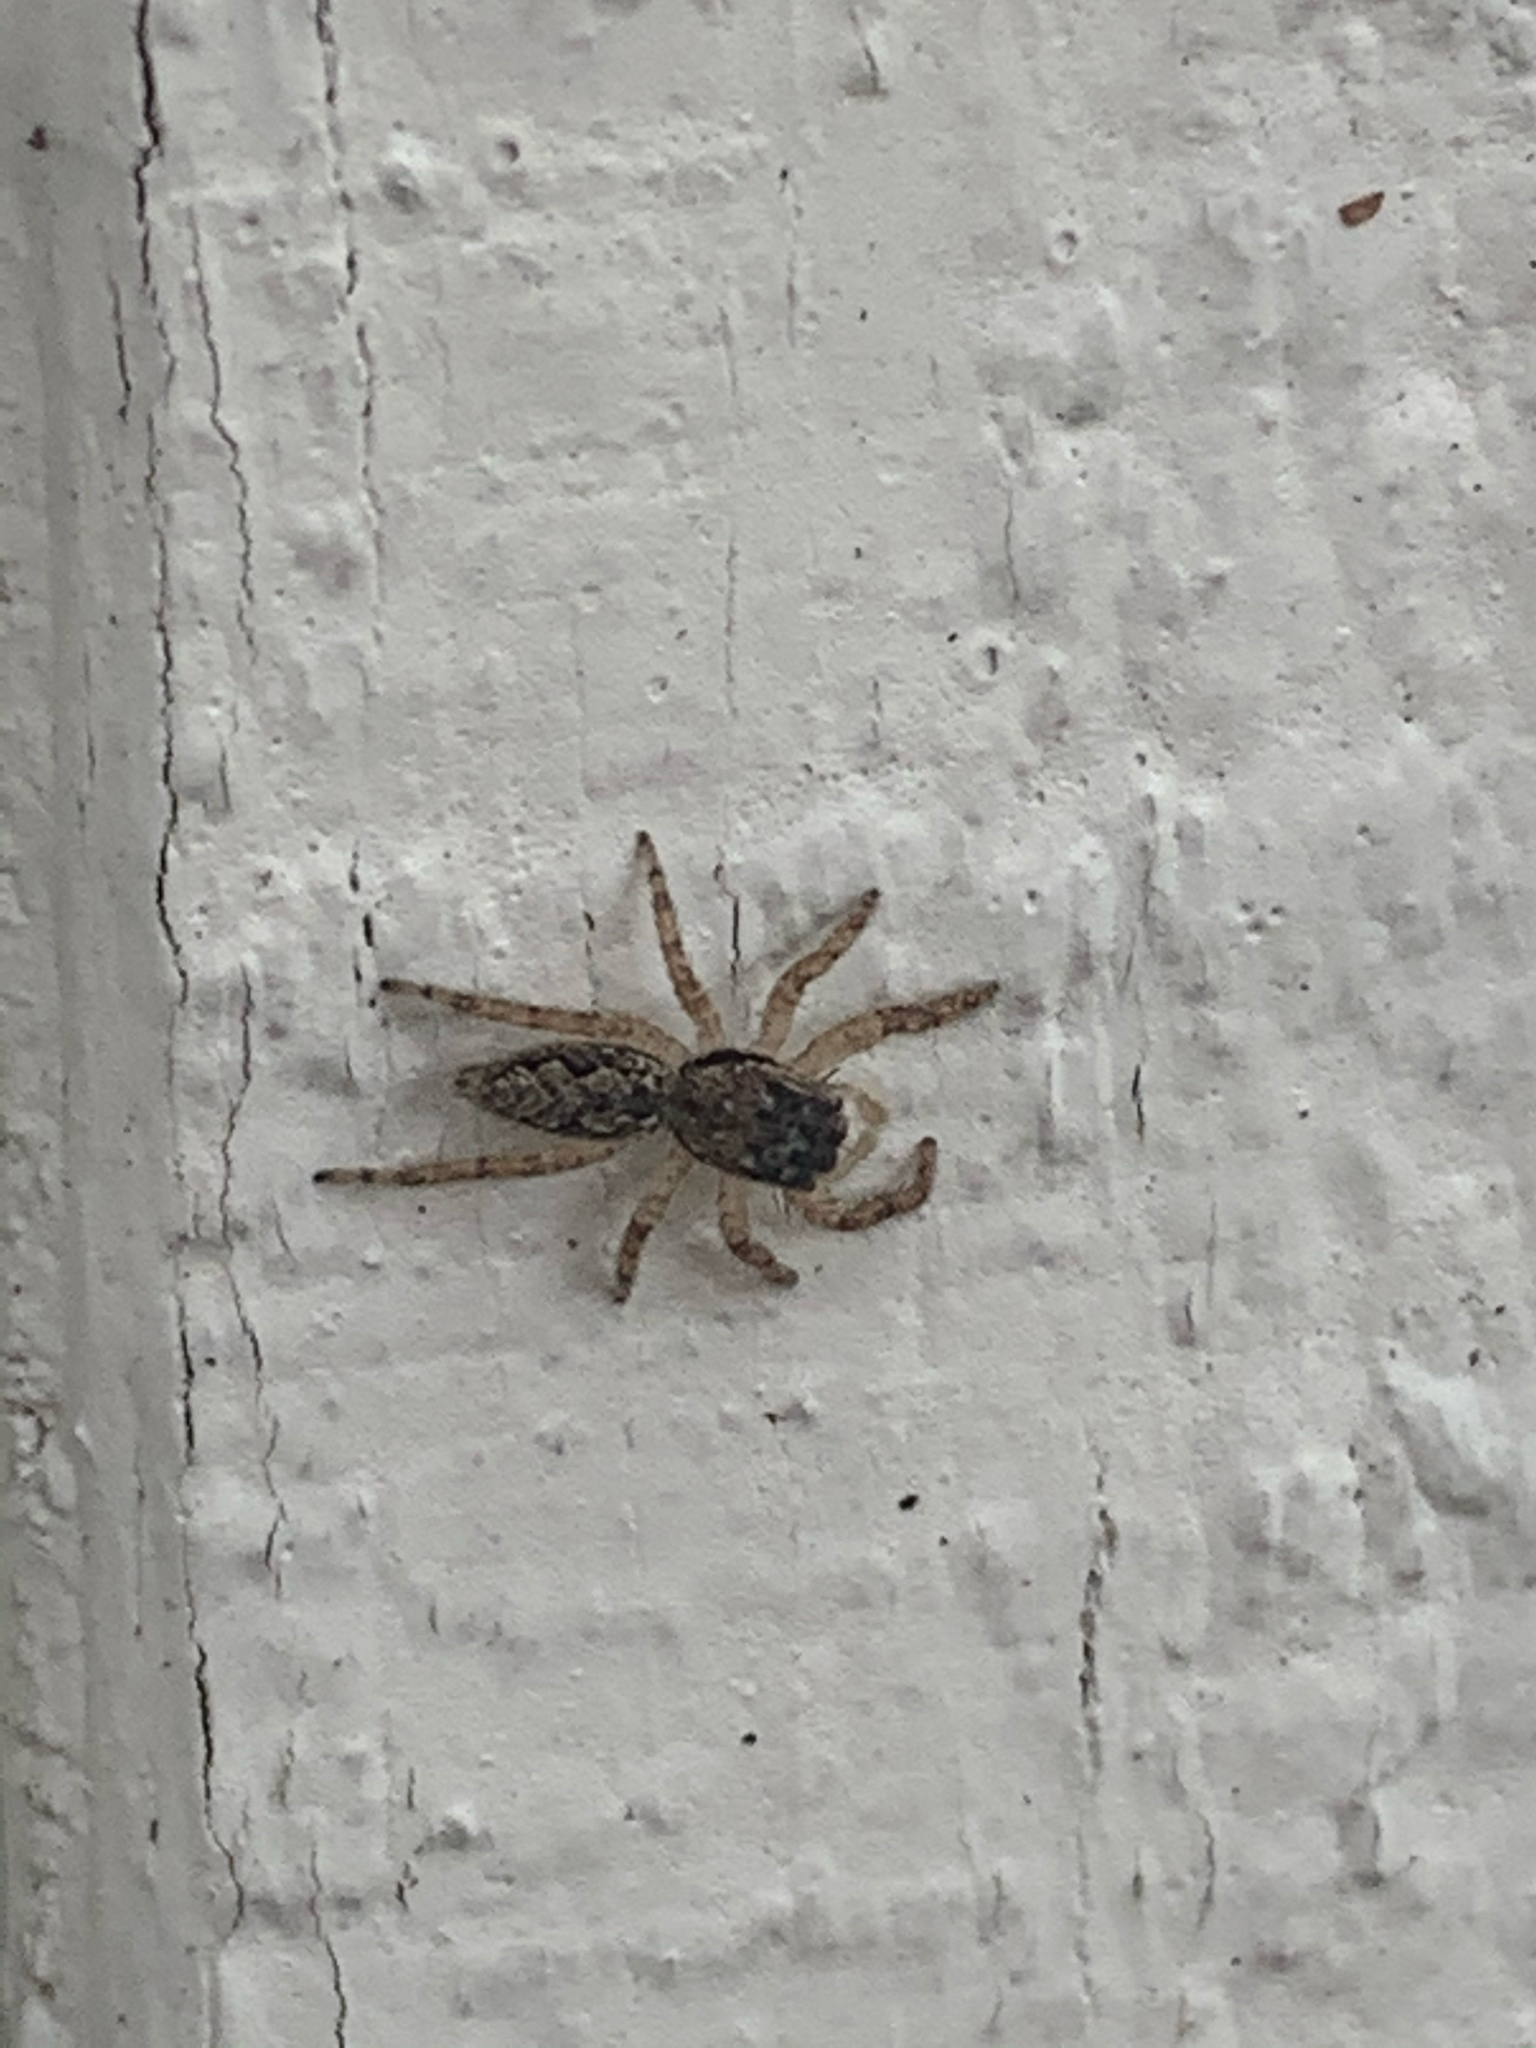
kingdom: Animalia
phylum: Arthropoda
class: Arachnida
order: Araneae
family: Salticidae
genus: Platycryptus
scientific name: Platycryptus undatus
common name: Tan jumping spider
